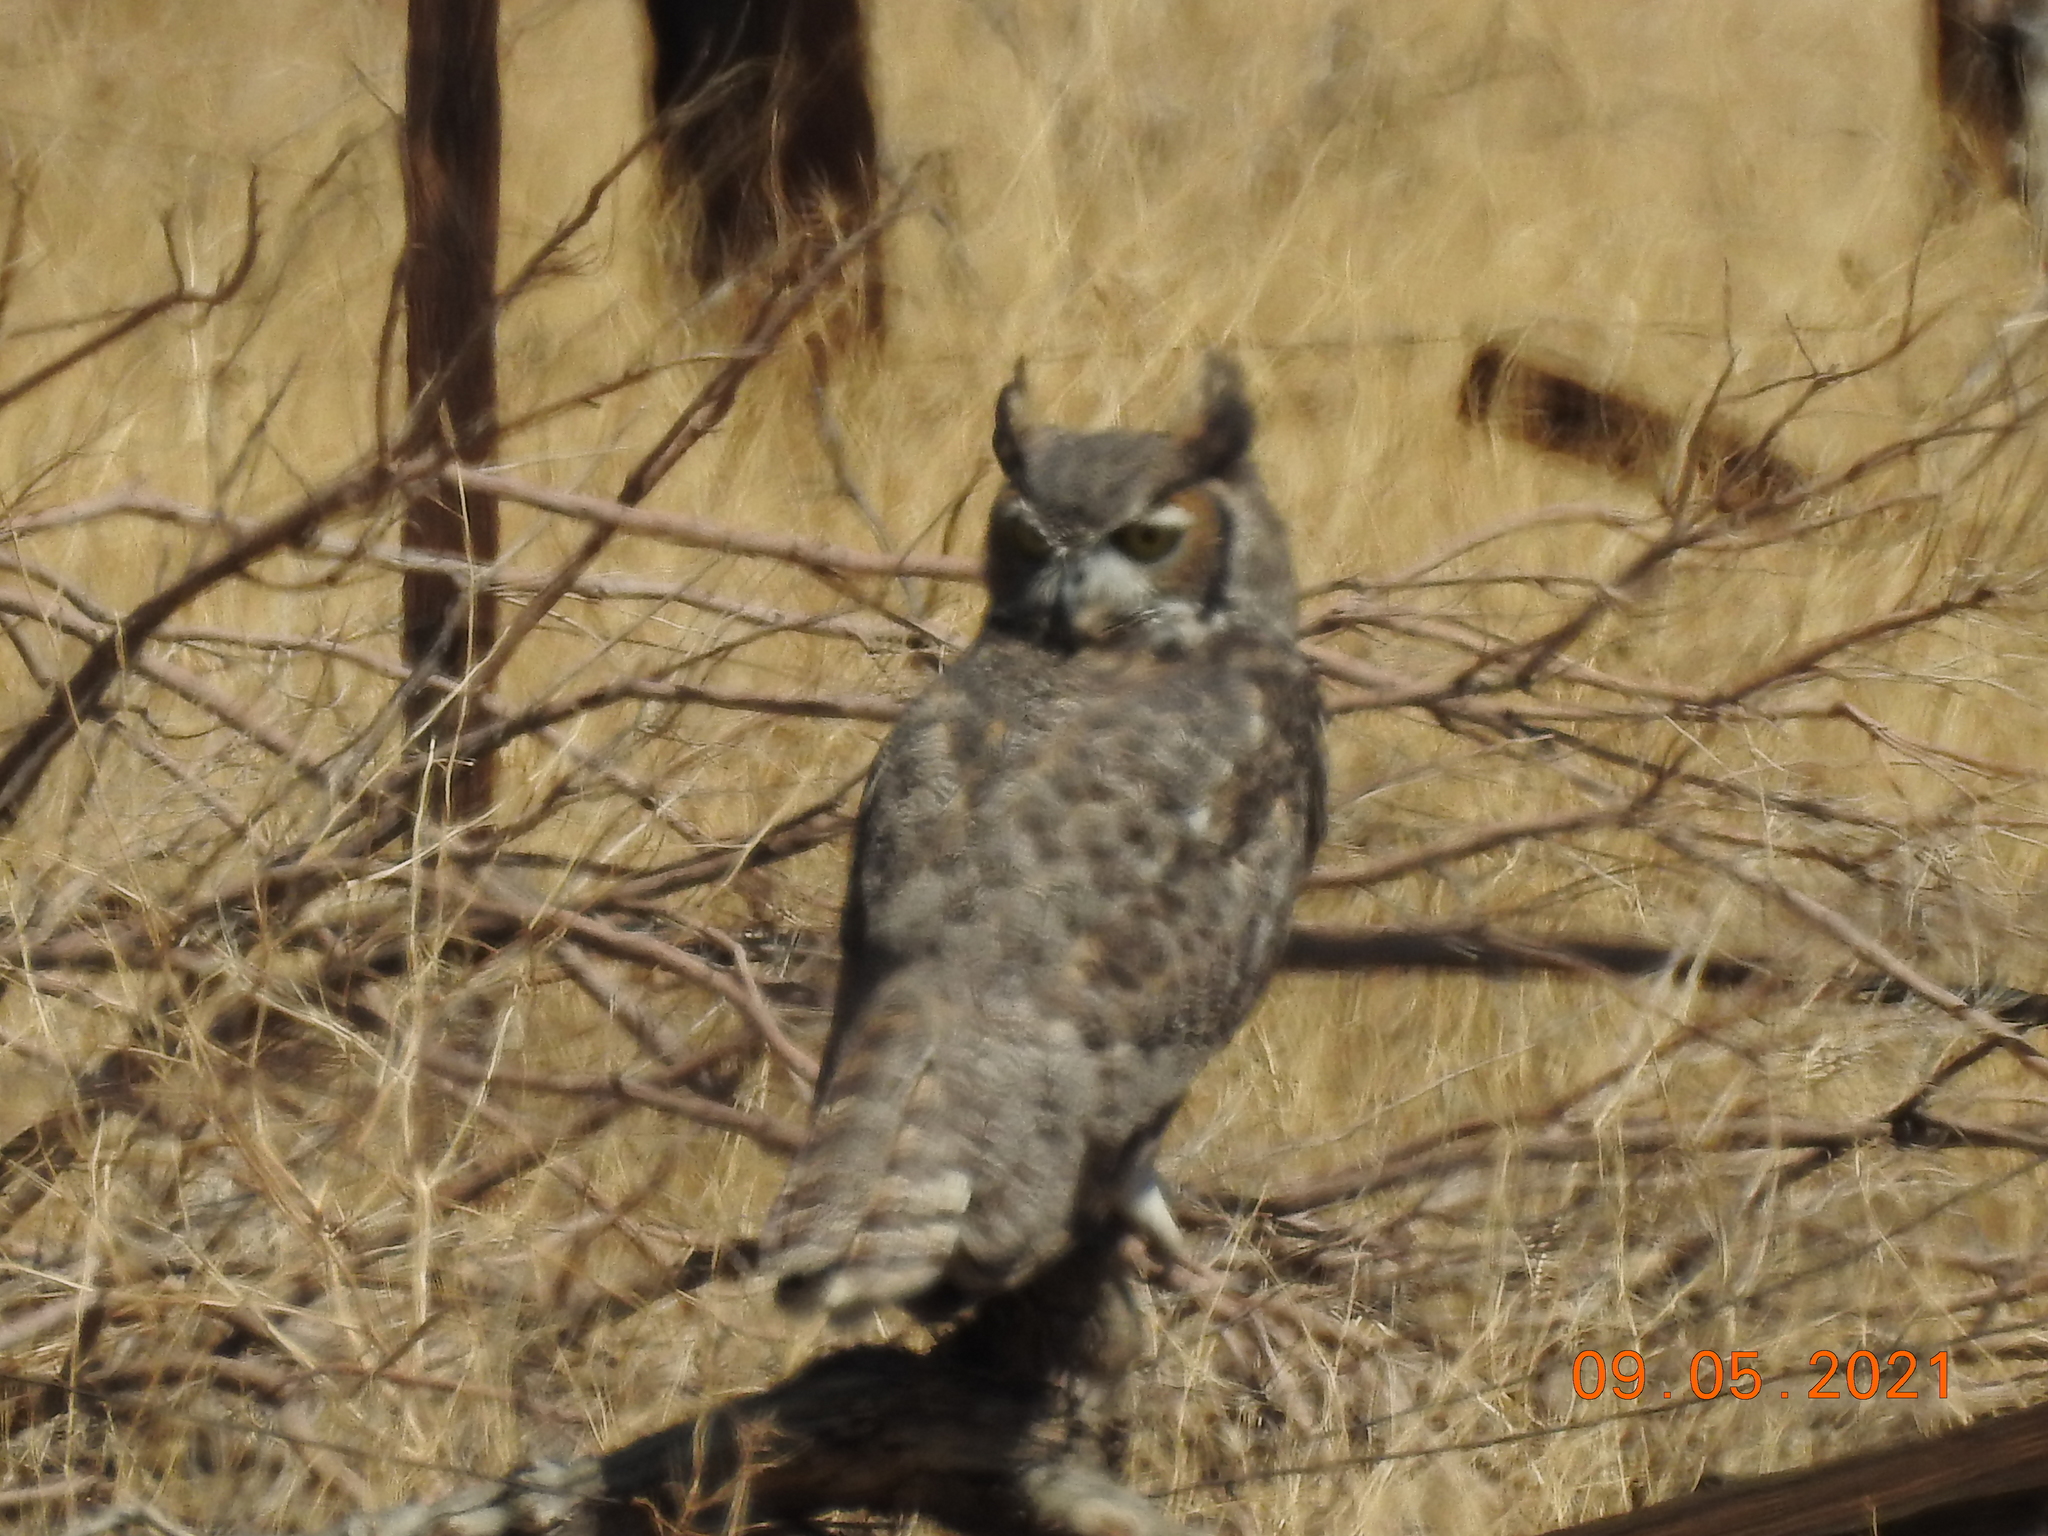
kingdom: Animalia
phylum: Chordata
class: Aves
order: Strigiformes
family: Strigidae
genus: Bubo
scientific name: Bubo virginianus
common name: Great horned owl
